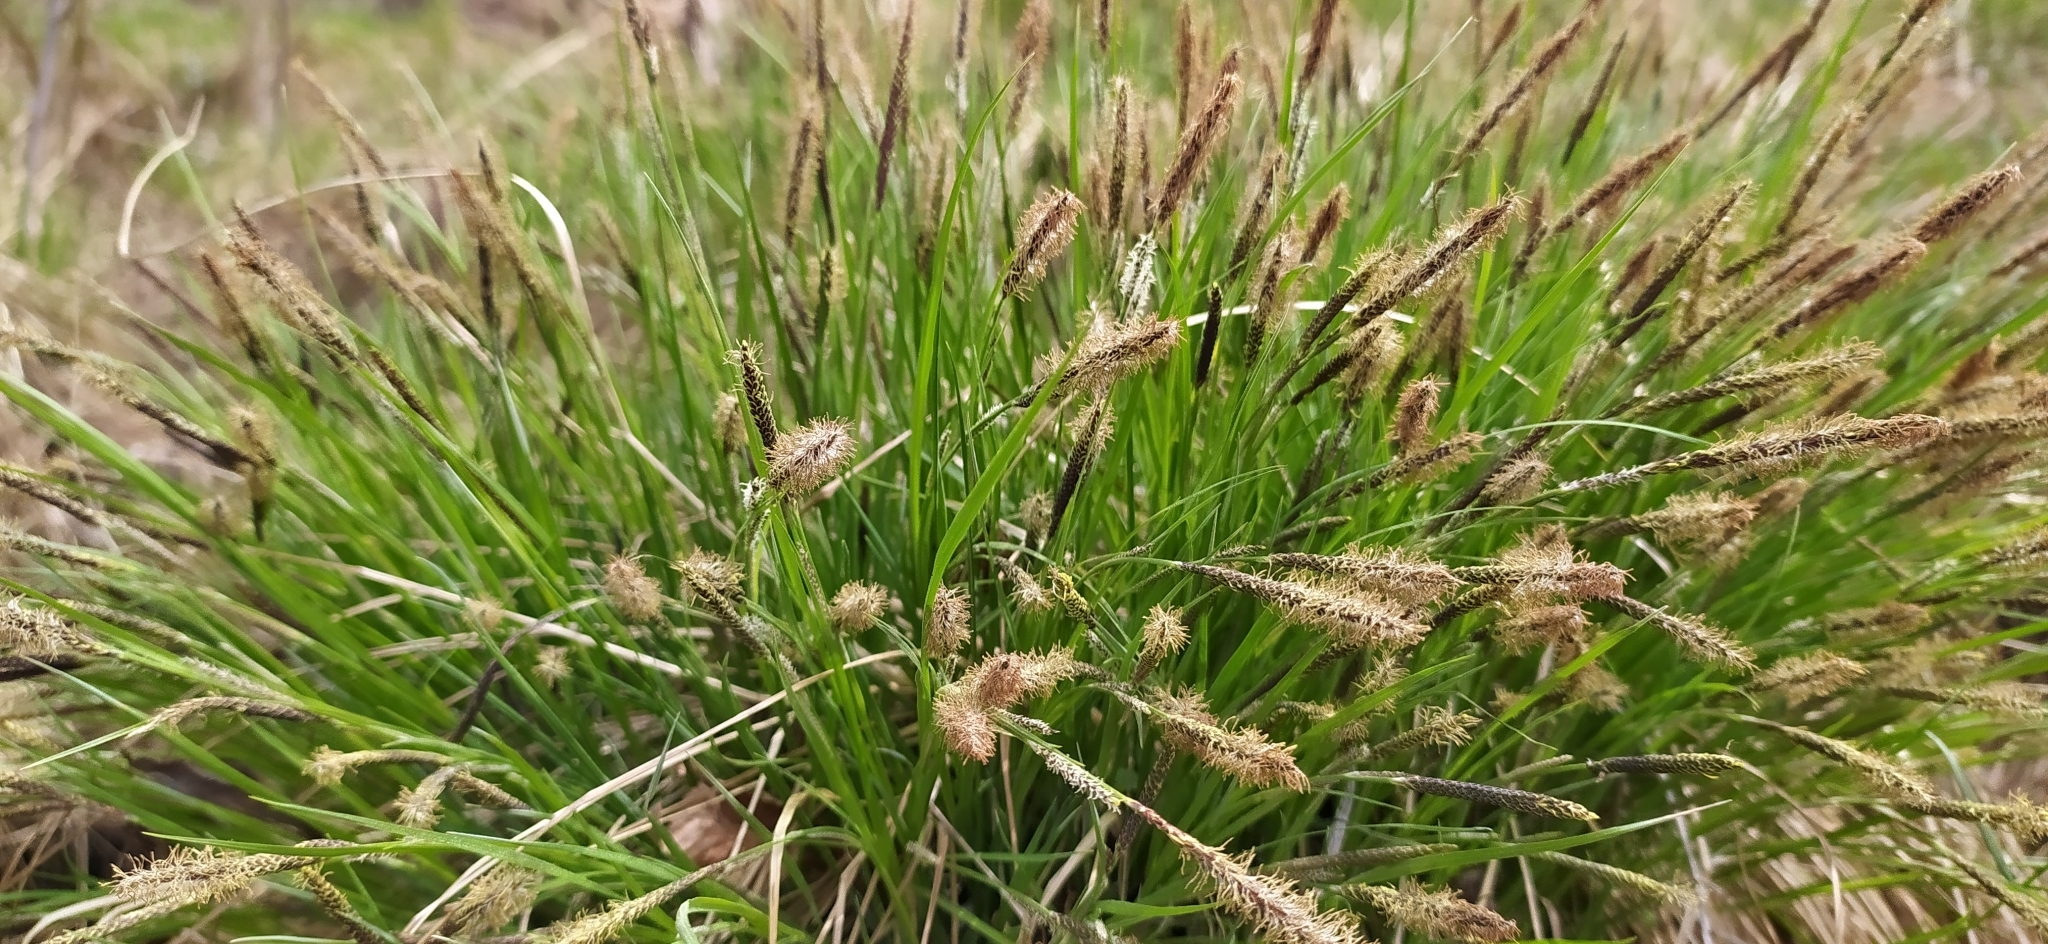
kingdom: Plantae
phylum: Tracheophyta
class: Liliopsida
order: Poales
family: Cyperaceae
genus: Carex
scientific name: Carex cespitosa
